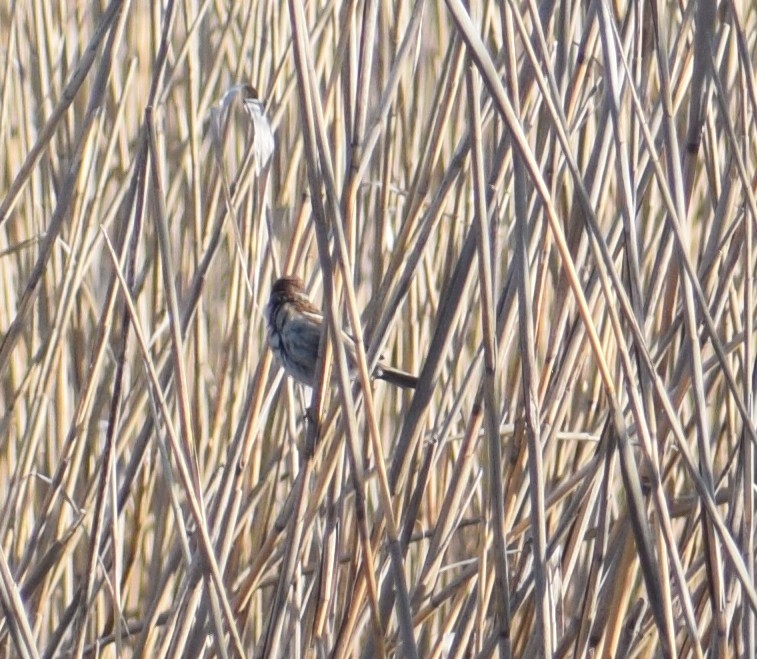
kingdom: Animalia
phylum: Chordata
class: Aves
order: Passeriformes
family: Emberizidae
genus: Emberiza
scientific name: Emberiza schoeniclus
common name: Reed bunting
